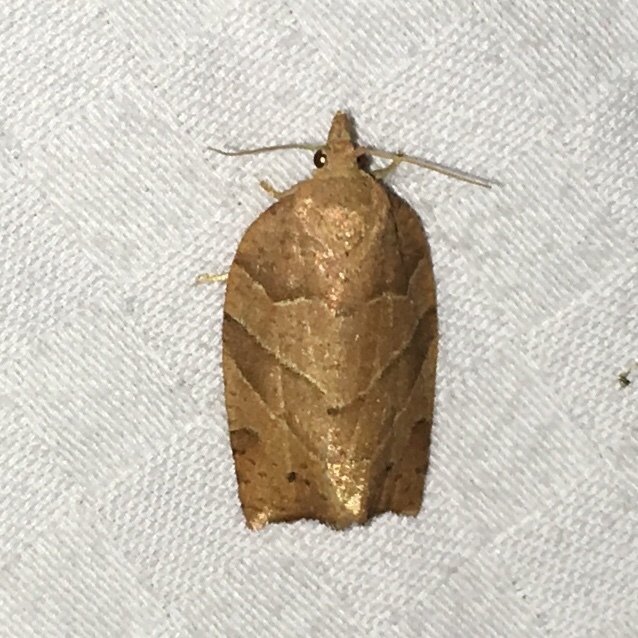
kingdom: Animalia
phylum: Arthropoda
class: Insecta
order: Lepidoptera
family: Tortricidae
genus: Pandemis
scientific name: Pandemis lamprosana
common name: Woodgrain leafroller moth
